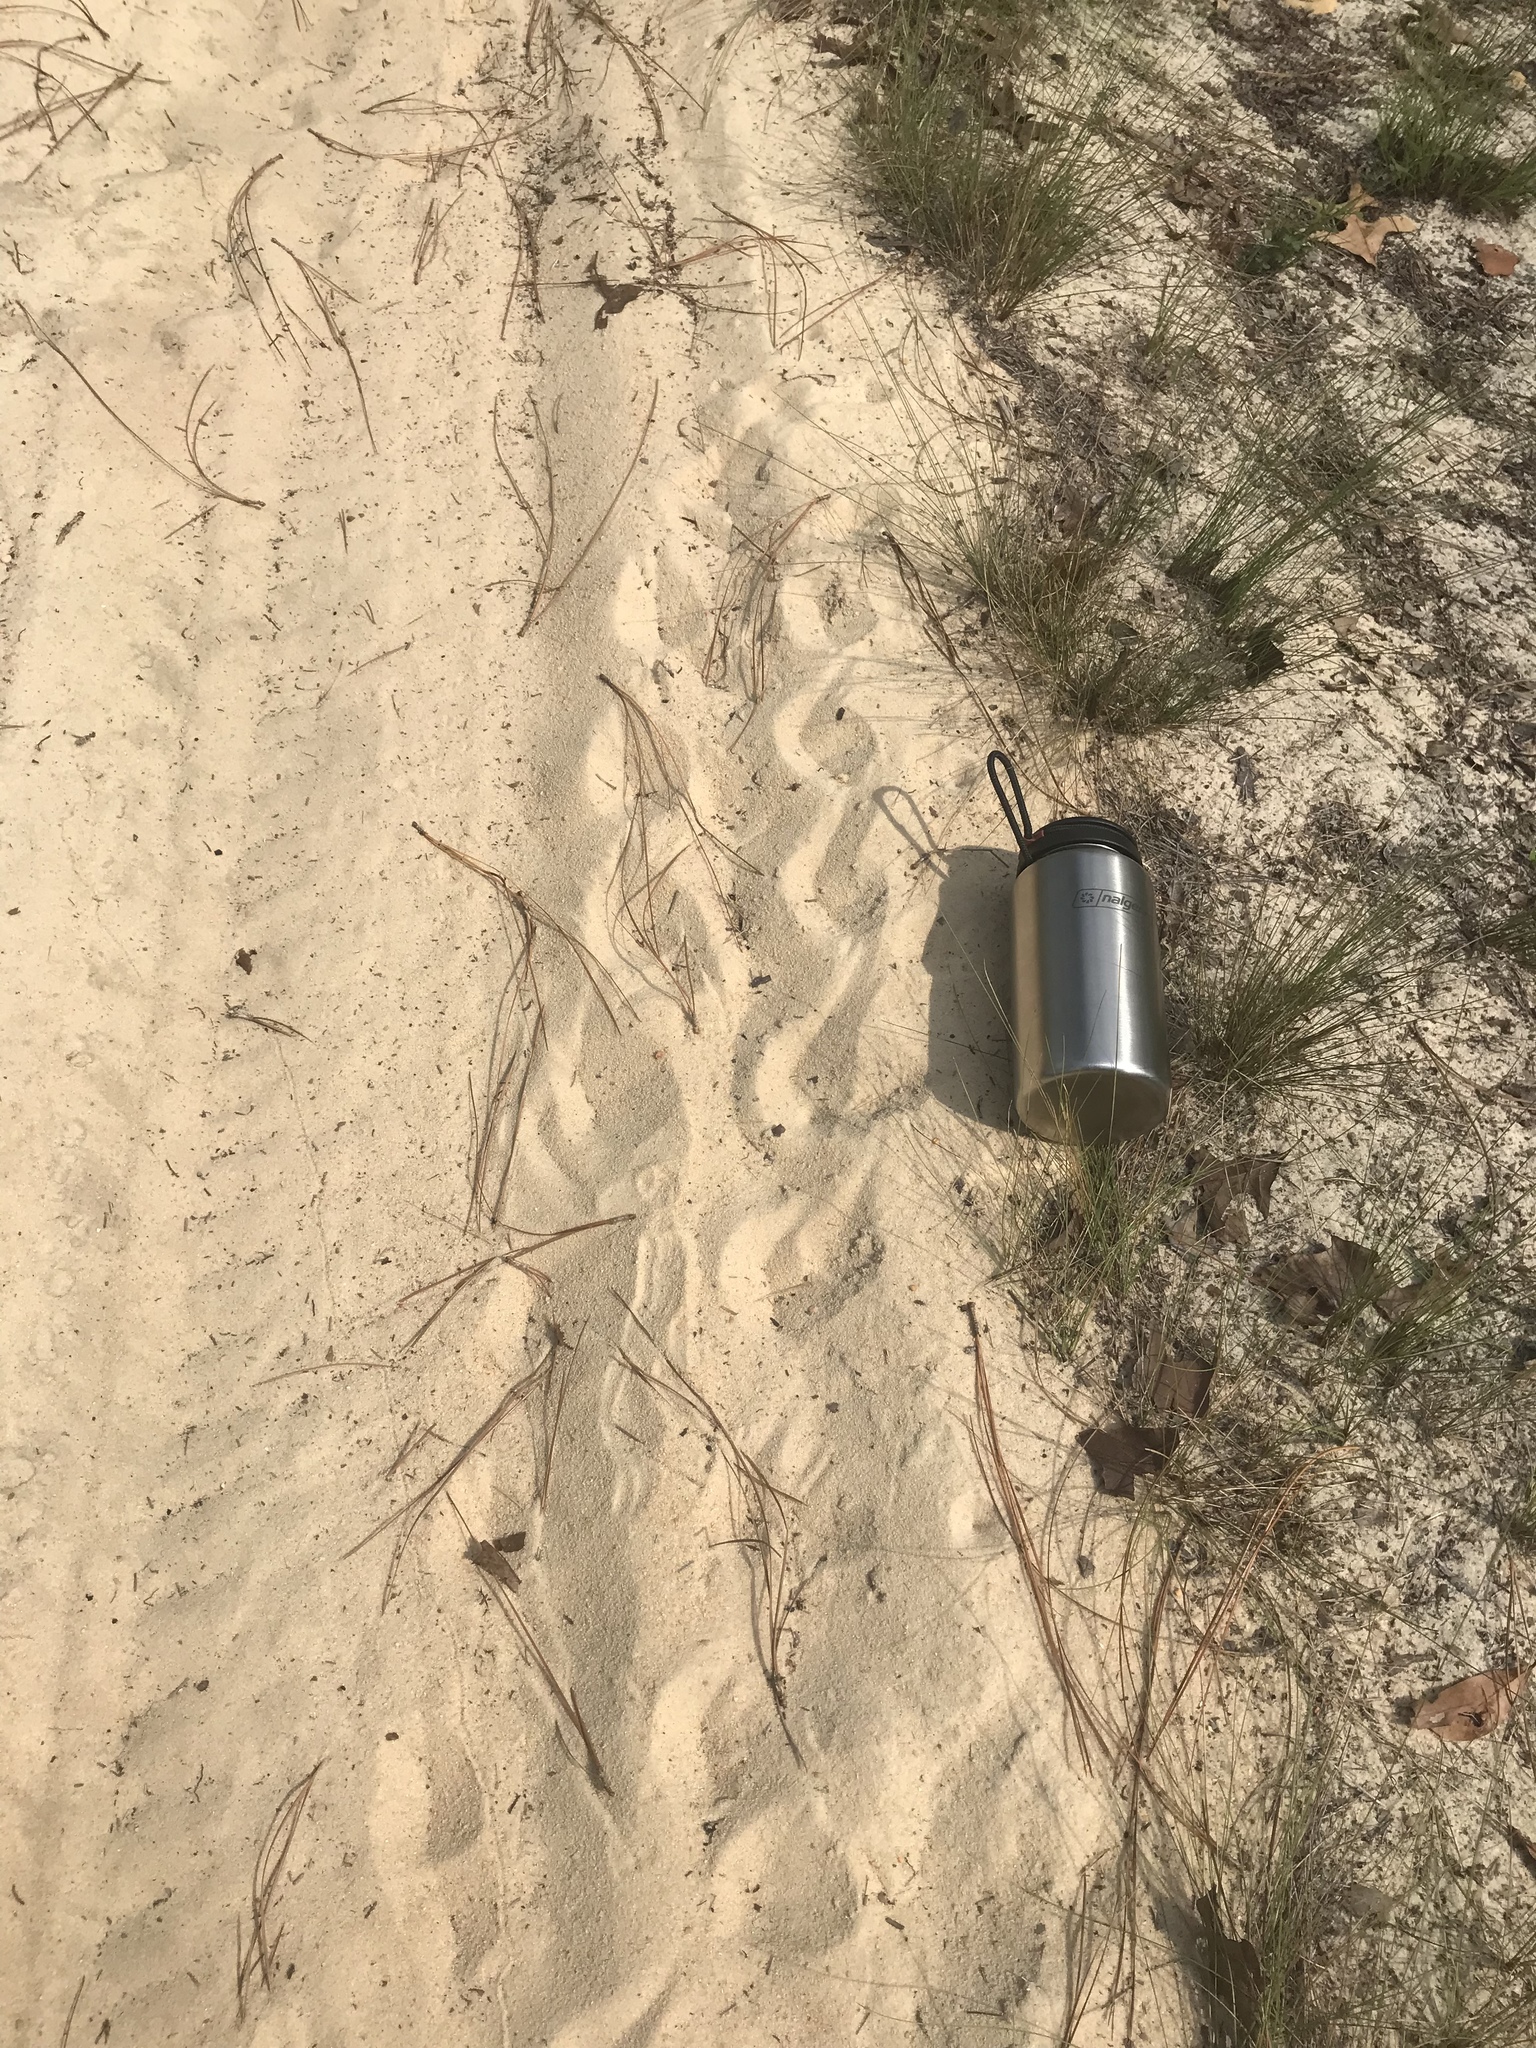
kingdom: Animalia
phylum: Chordata
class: Testudines
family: Testudinidae
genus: Gopherus
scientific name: Gopherus polyphemus
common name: Florida gopher tortoise
